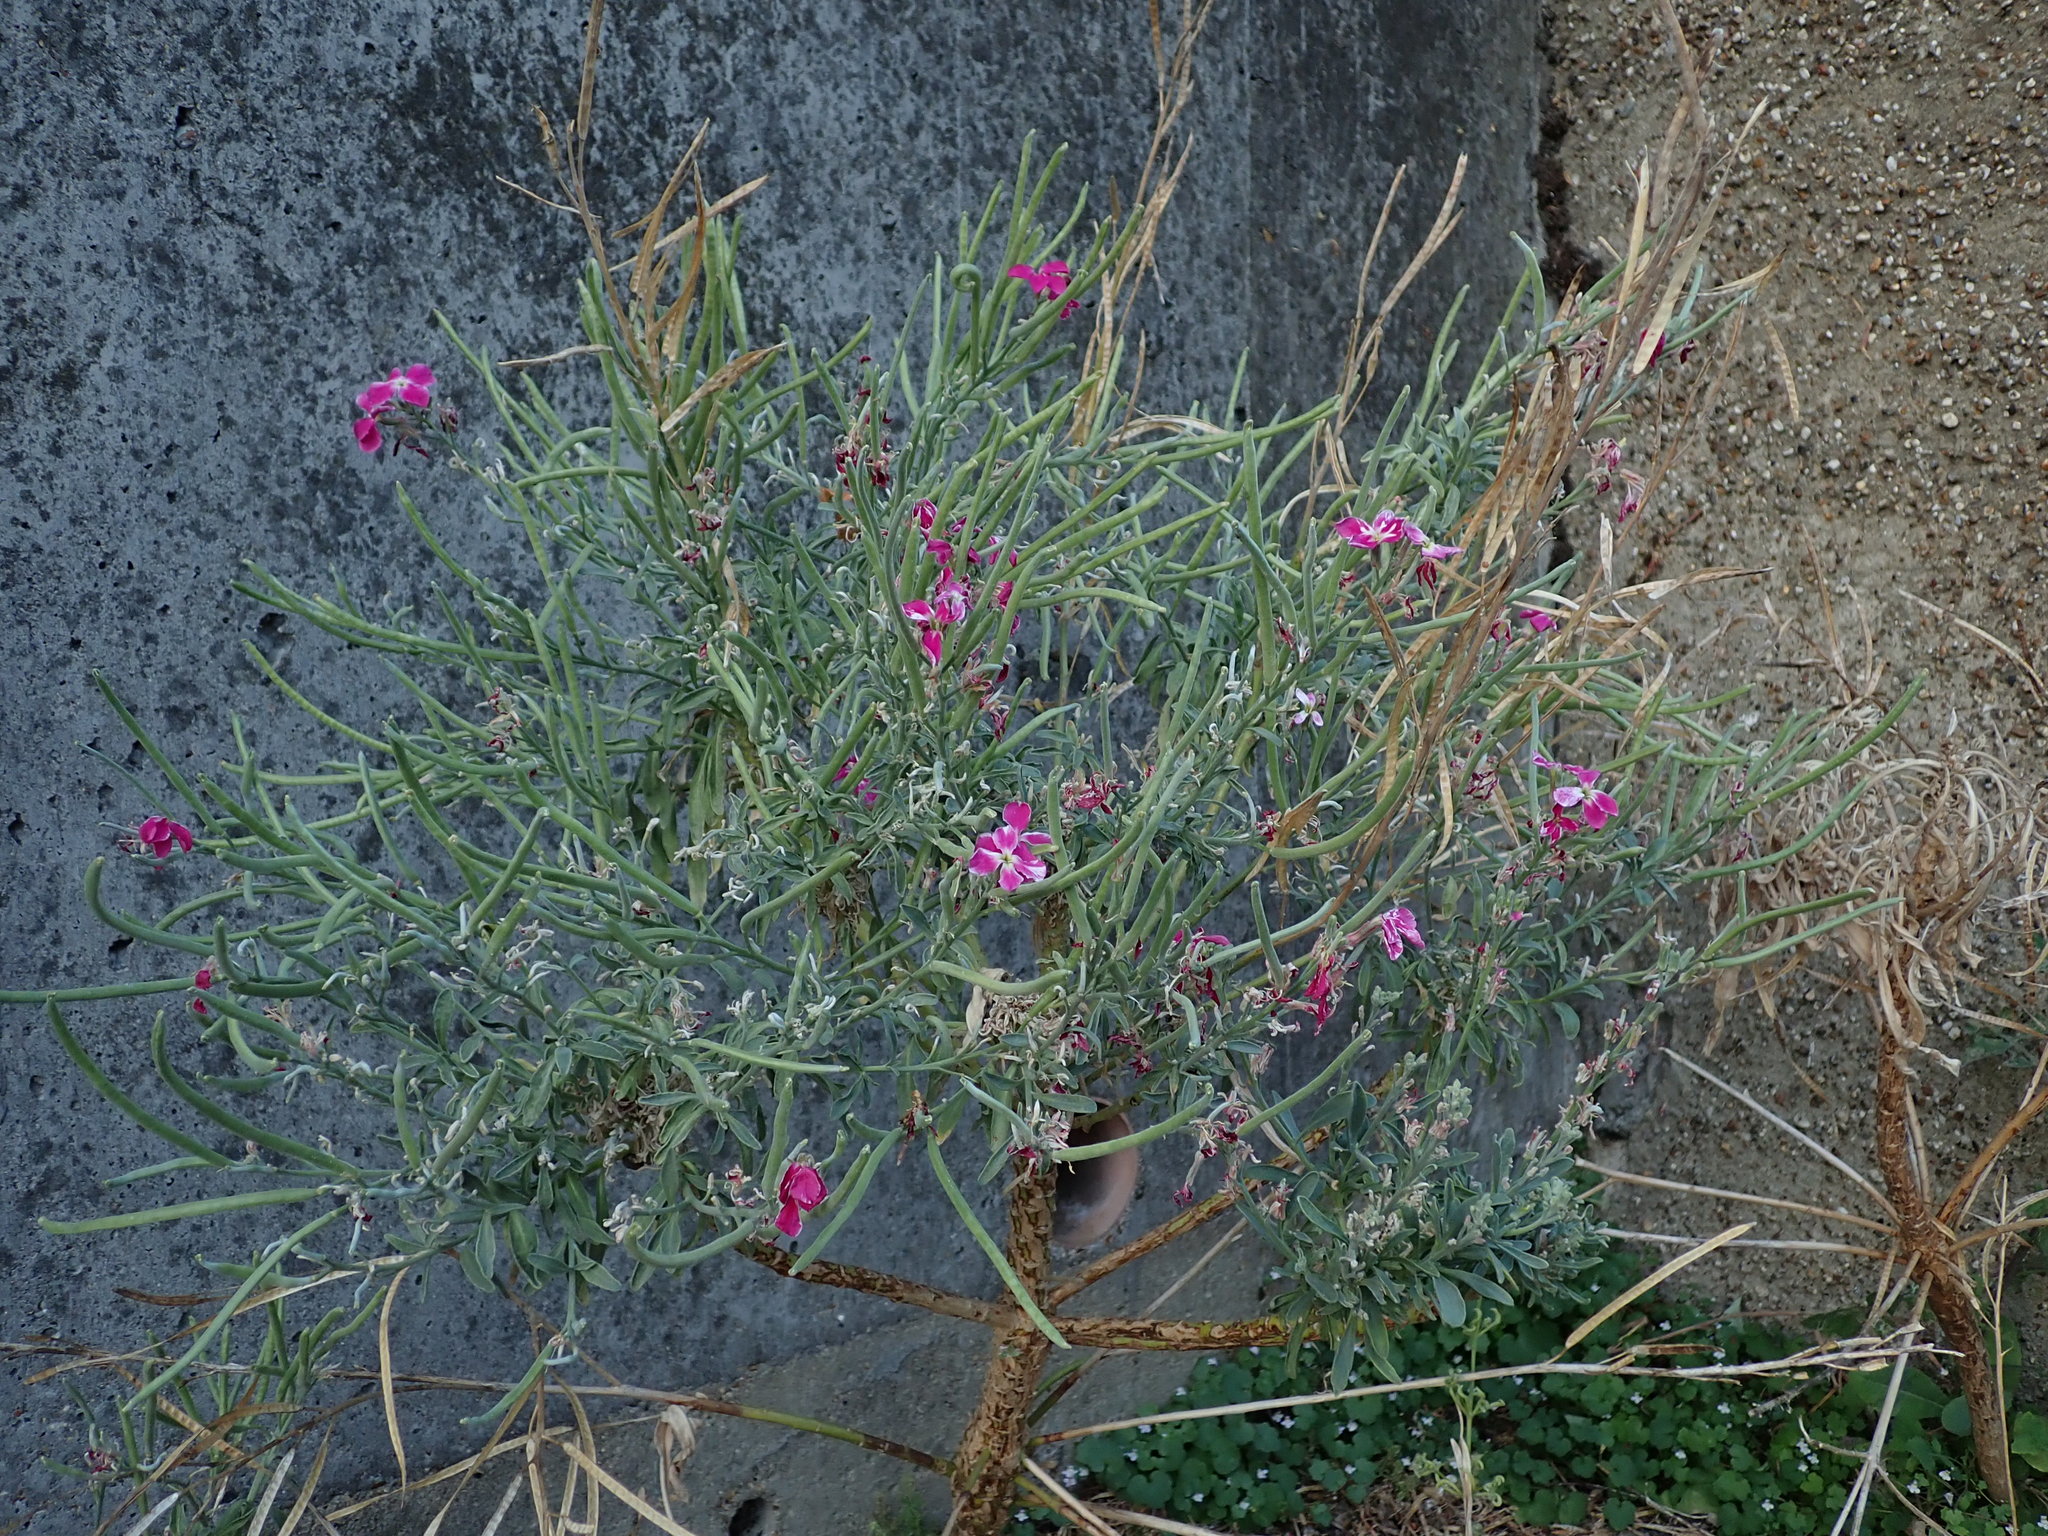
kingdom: Plantae
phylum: Tracheophyta
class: Magnoliopsida
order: Brassicales
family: Brassicaceae
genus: Matthiola
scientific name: Matthiola incana
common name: Hoary stock
